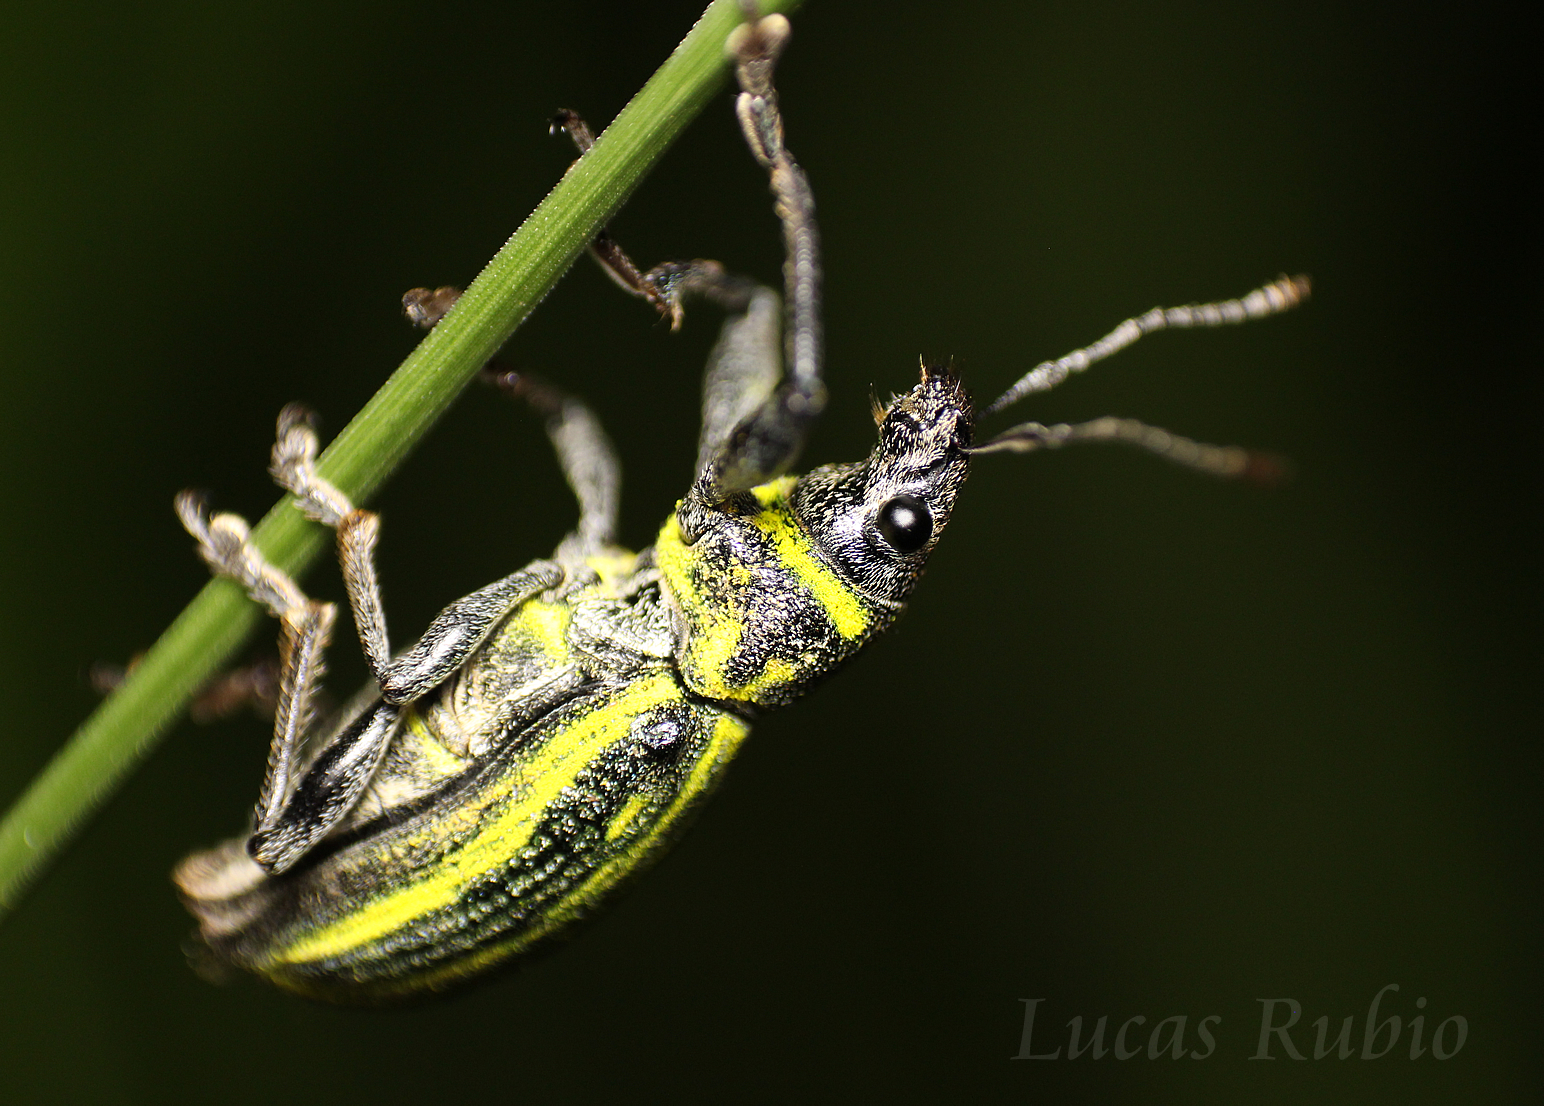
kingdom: Animalia
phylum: Arthropoda
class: Insecta
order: Coleoptera
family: Curculionidae
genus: Naupactus
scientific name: Naupactus rivulosus
